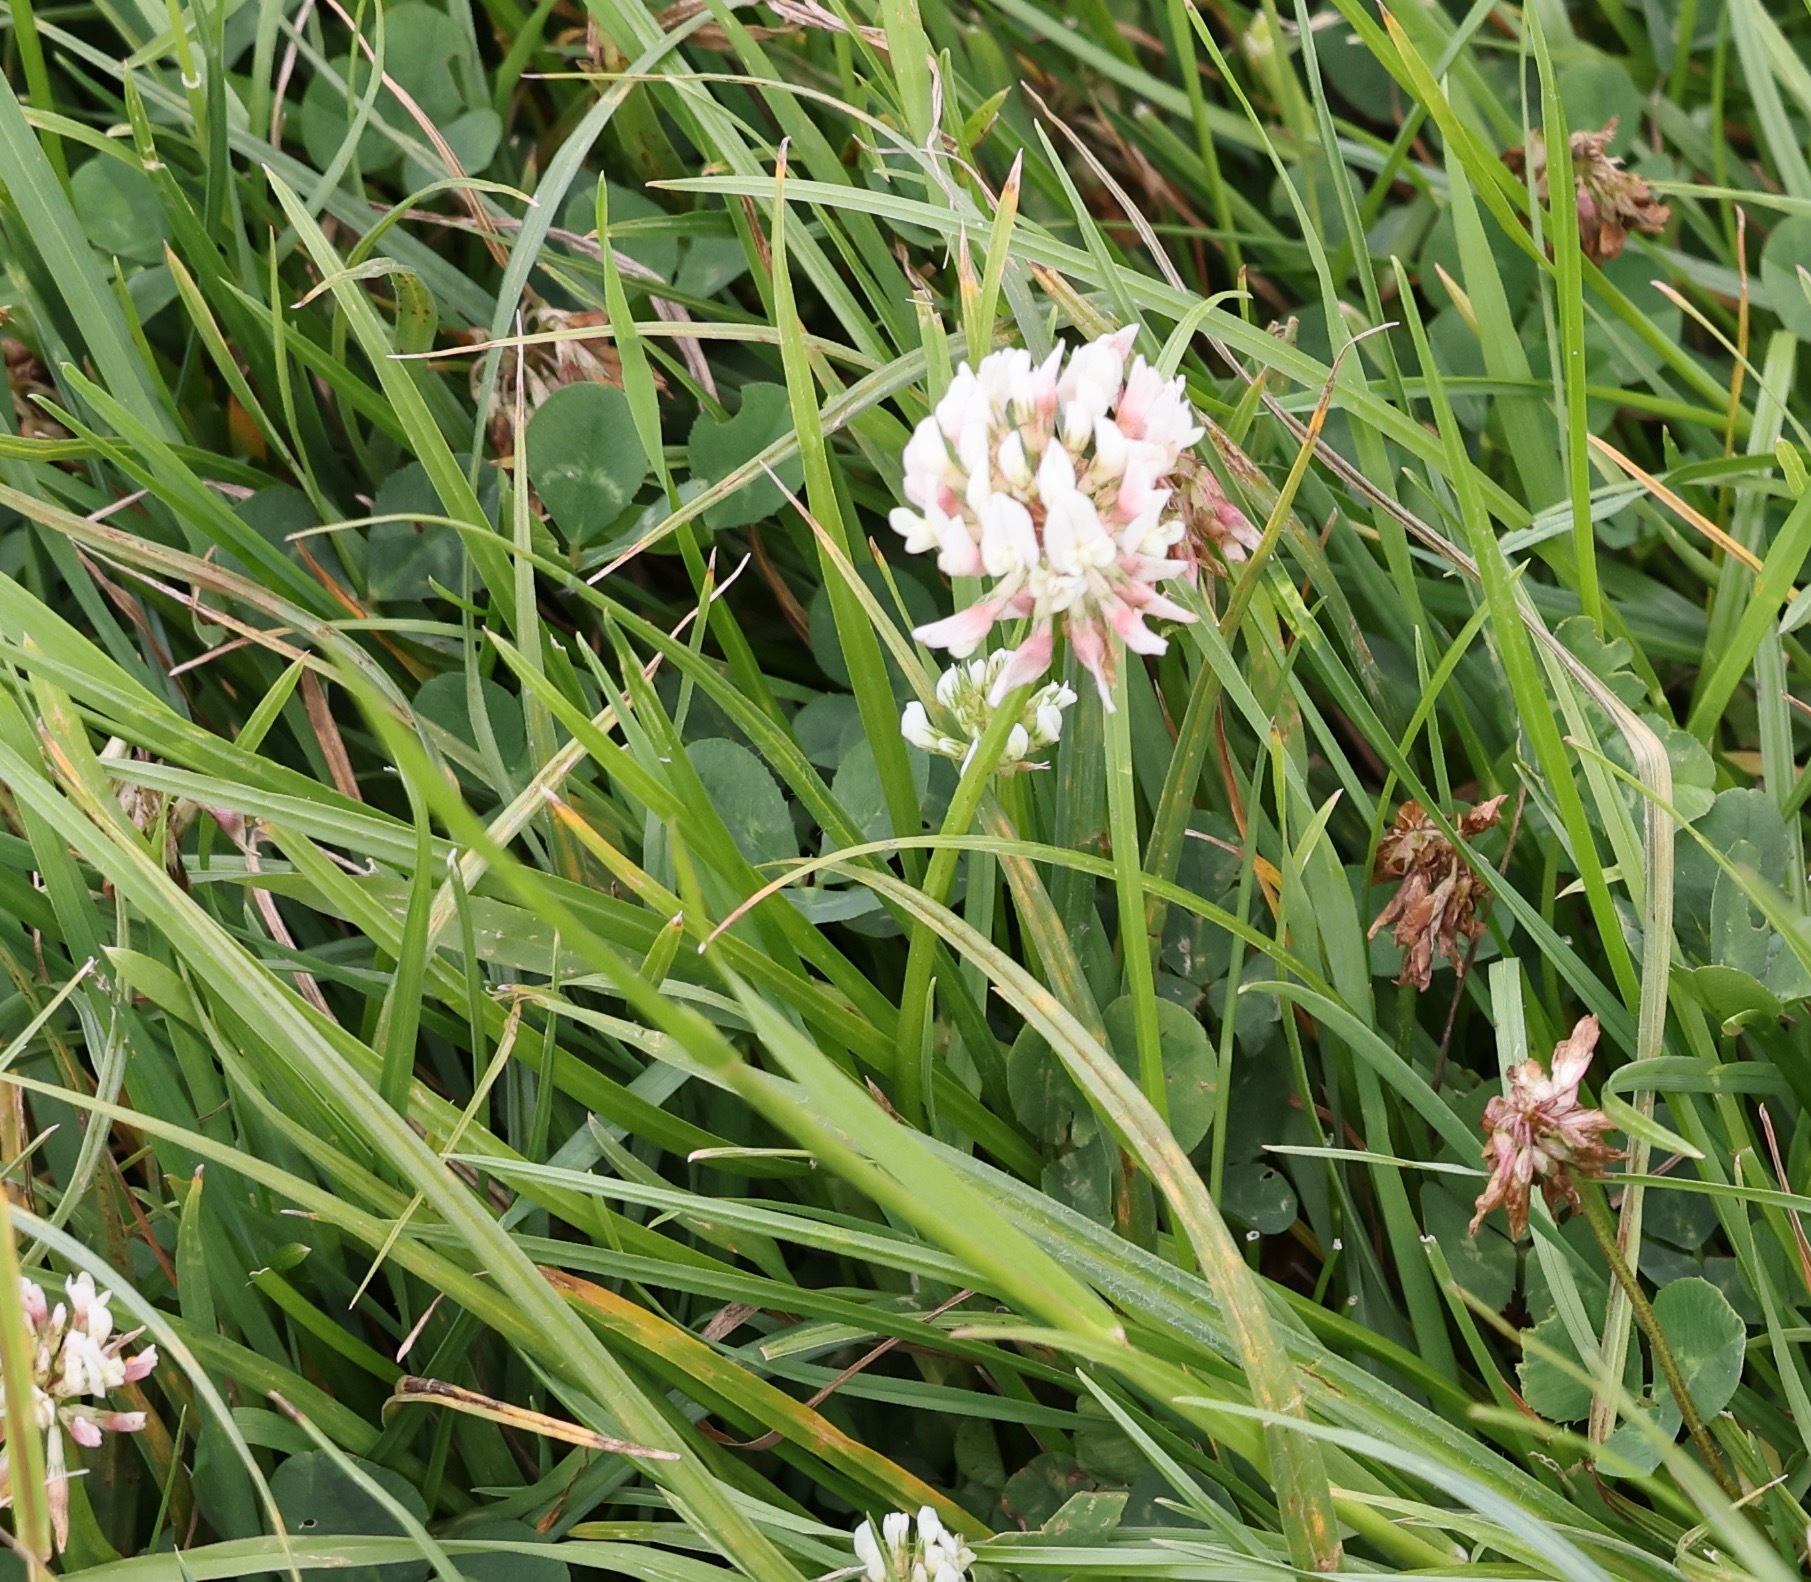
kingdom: Plantae
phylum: Tracheophyta
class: Magnoliopsida
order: Fabales
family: Fabaceae
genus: Trifolium
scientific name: Trifolium repens
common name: White clover
